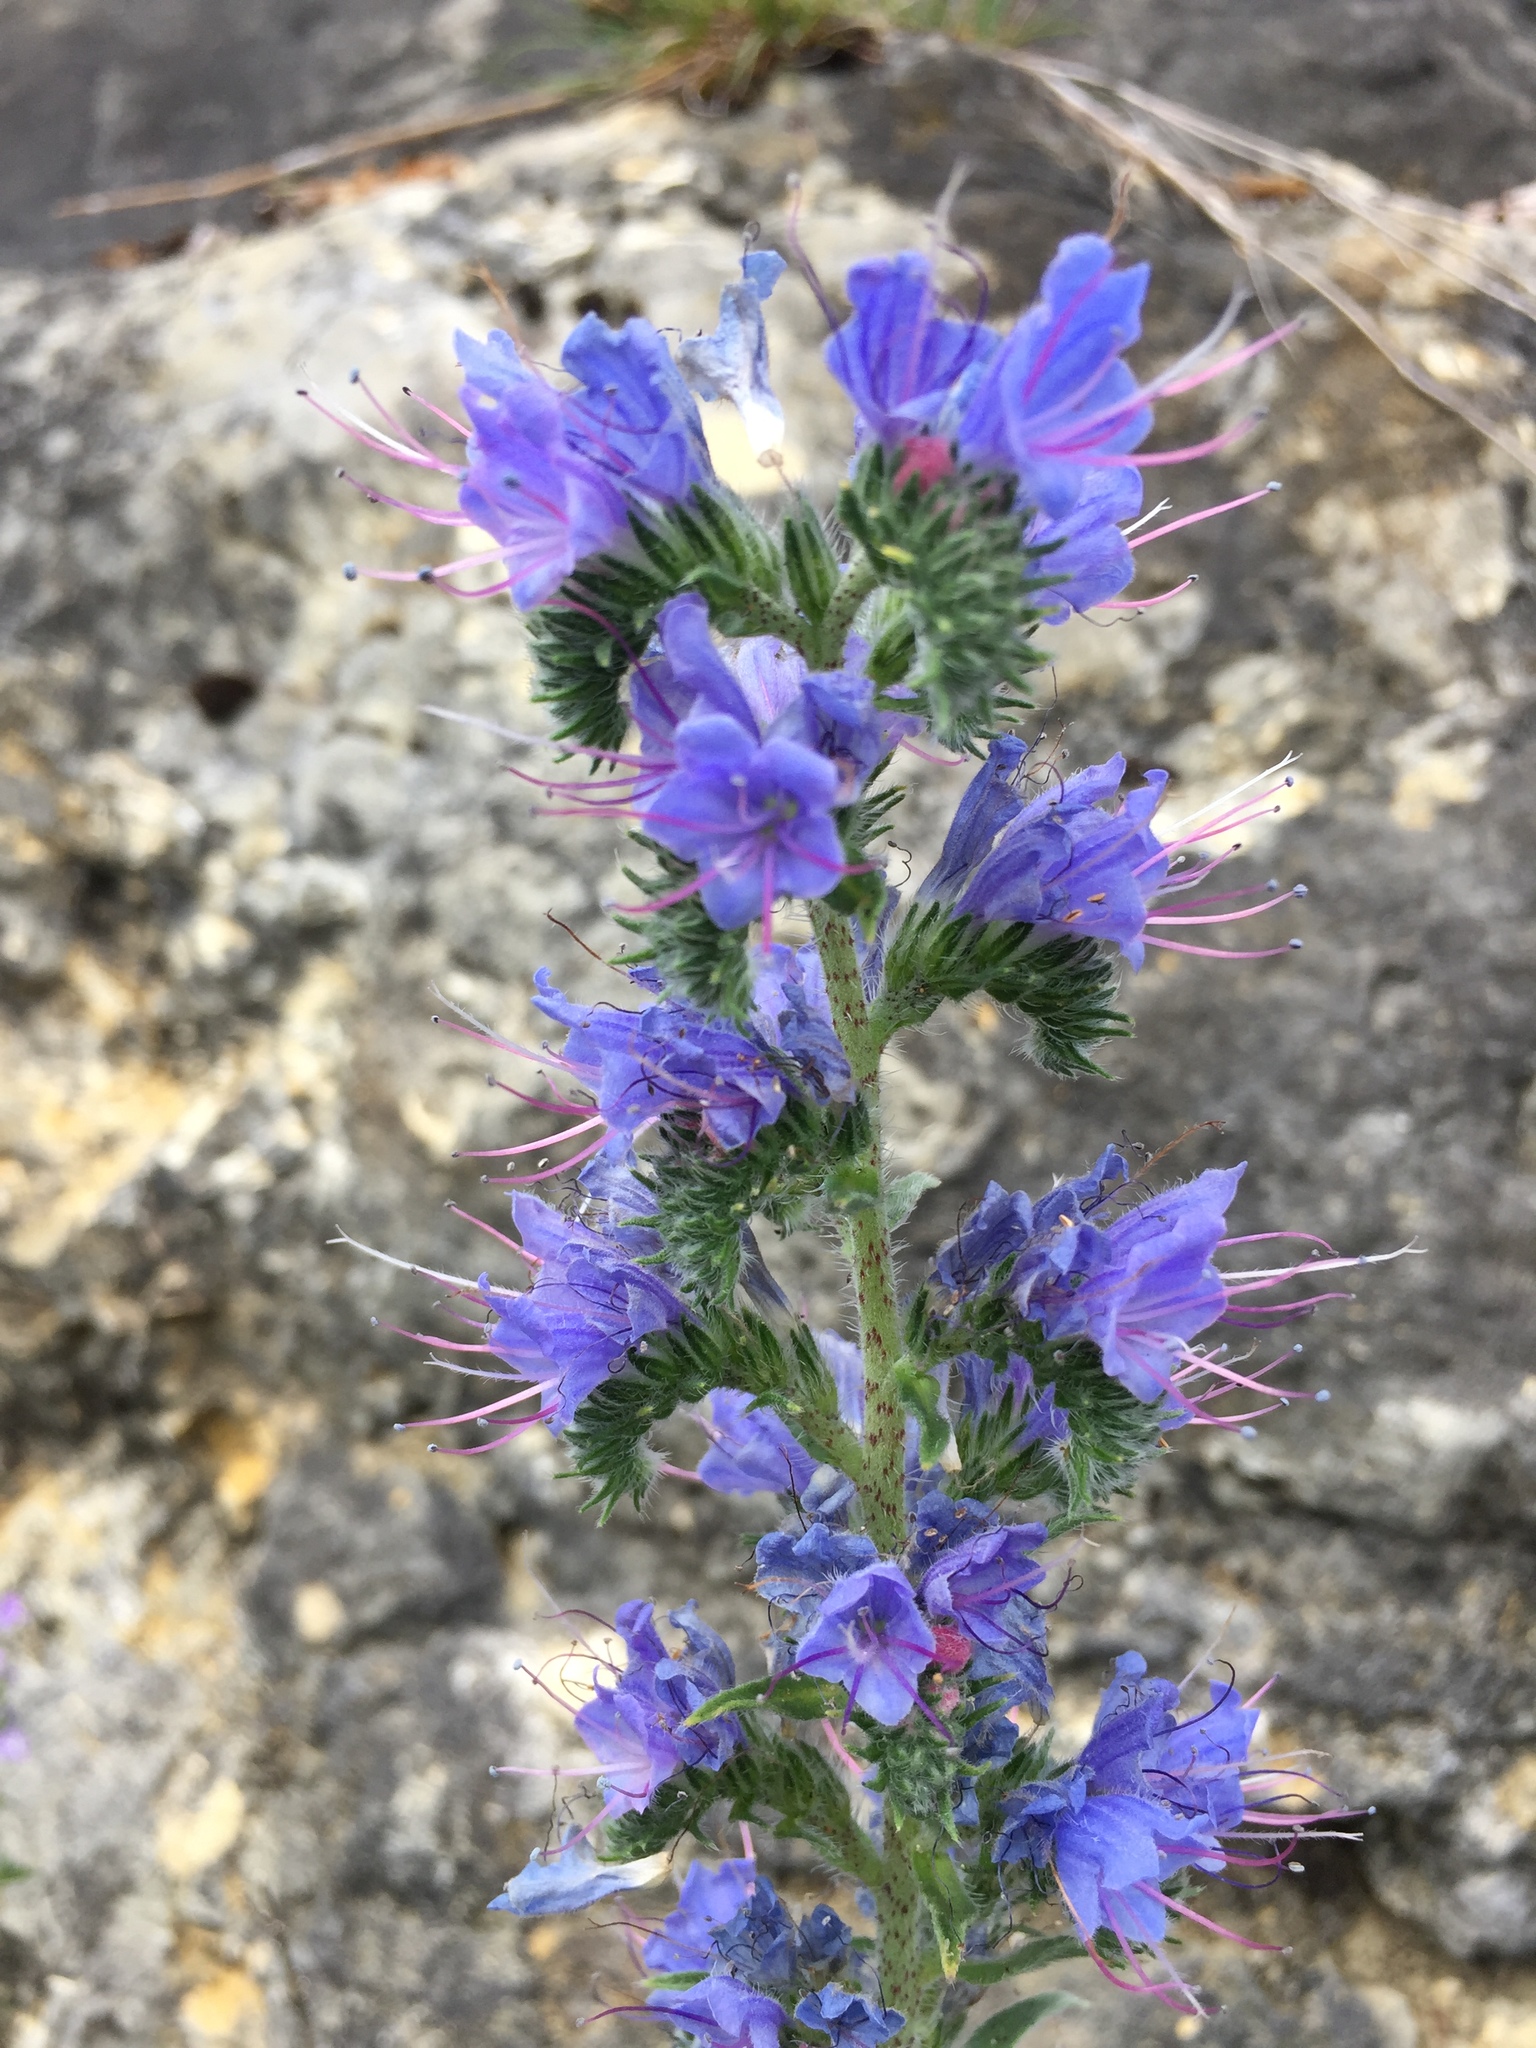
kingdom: Plantae
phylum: Tracheophyta
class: Magnoliopsida
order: Boraginales
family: Boraginaceae
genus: Echium
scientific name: Echium vulgare
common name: Common viper's bugloss
